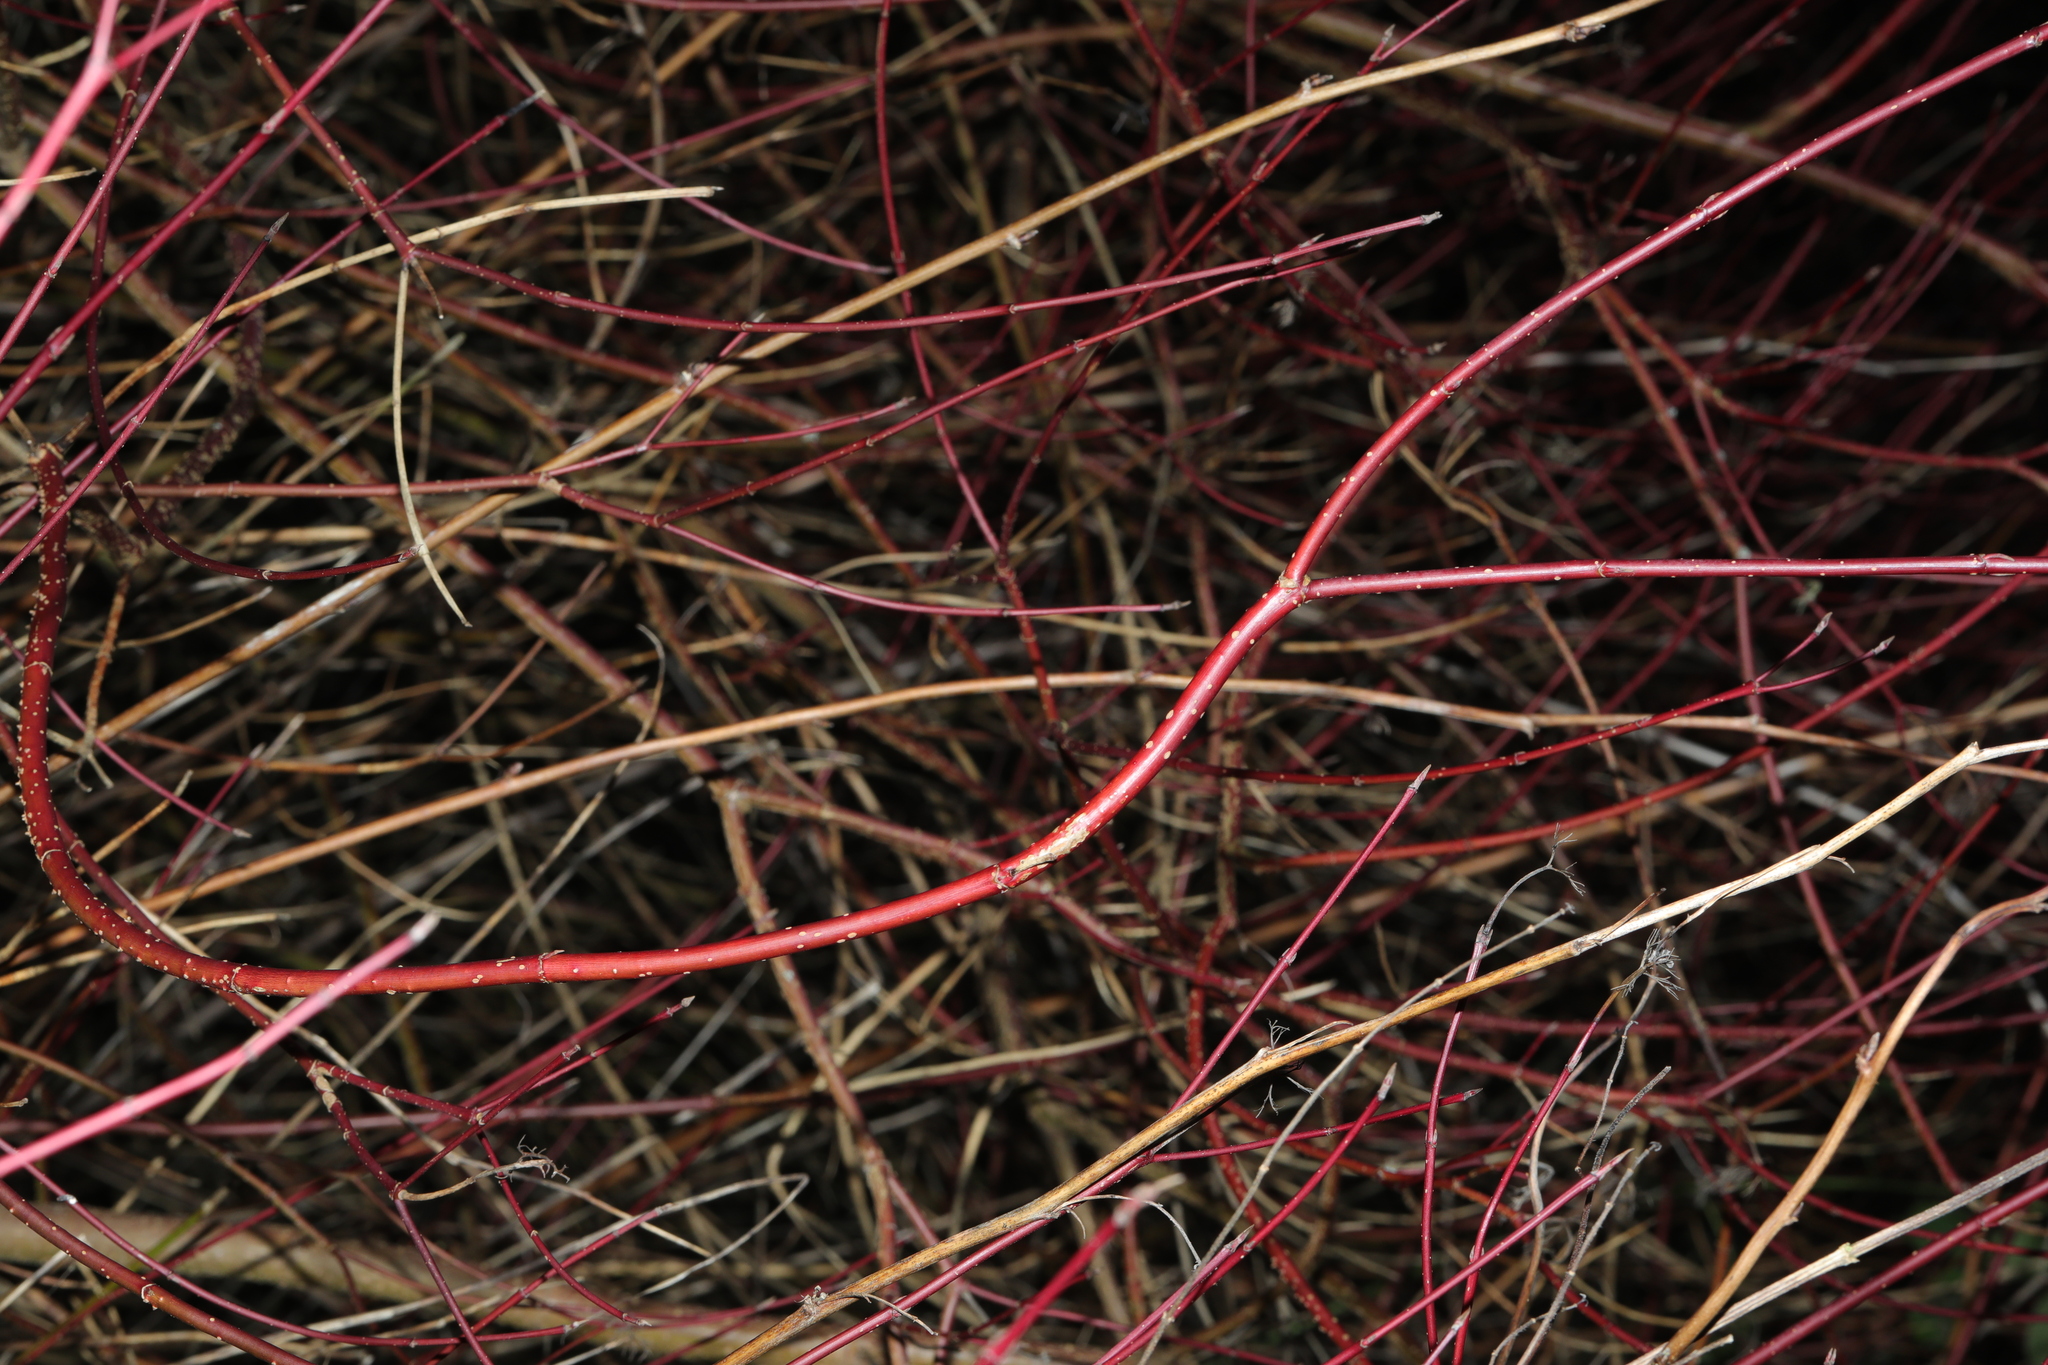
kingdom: Plantae
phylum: Tracheophyta
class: Magnoliopsida
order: Cornales
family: Cornaceae
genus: Cornus
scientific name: Cornus alba
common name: White dogwood
